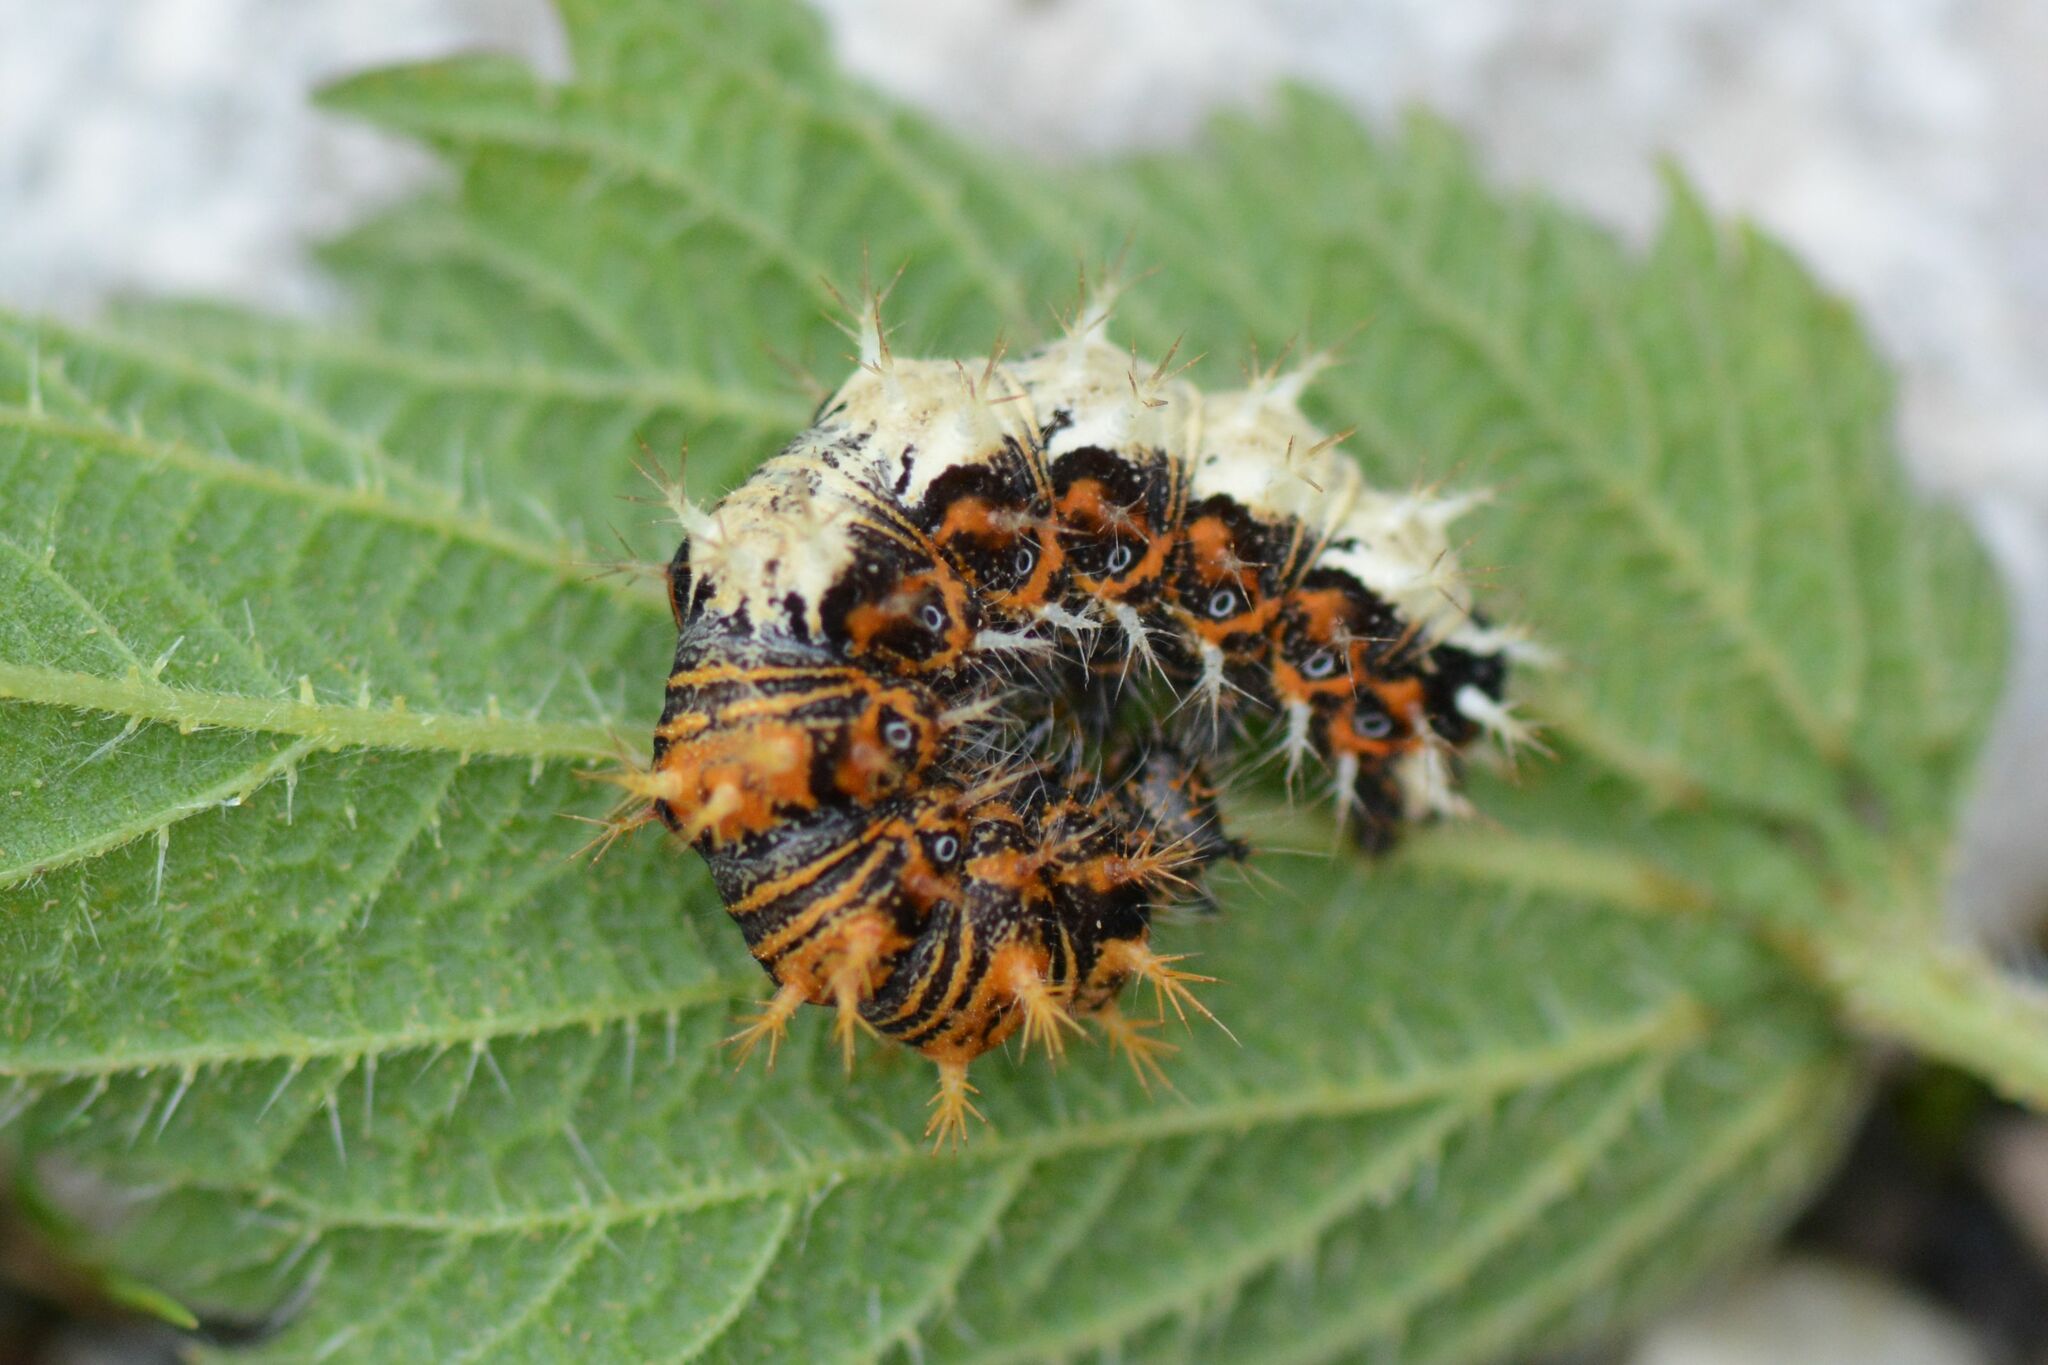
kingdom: Animalia
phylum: Arthropoda
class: Insecta
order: Lepidoptera
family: Nymphalidae
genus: Polygonia
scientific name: Polygonia c-album
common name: Comma
